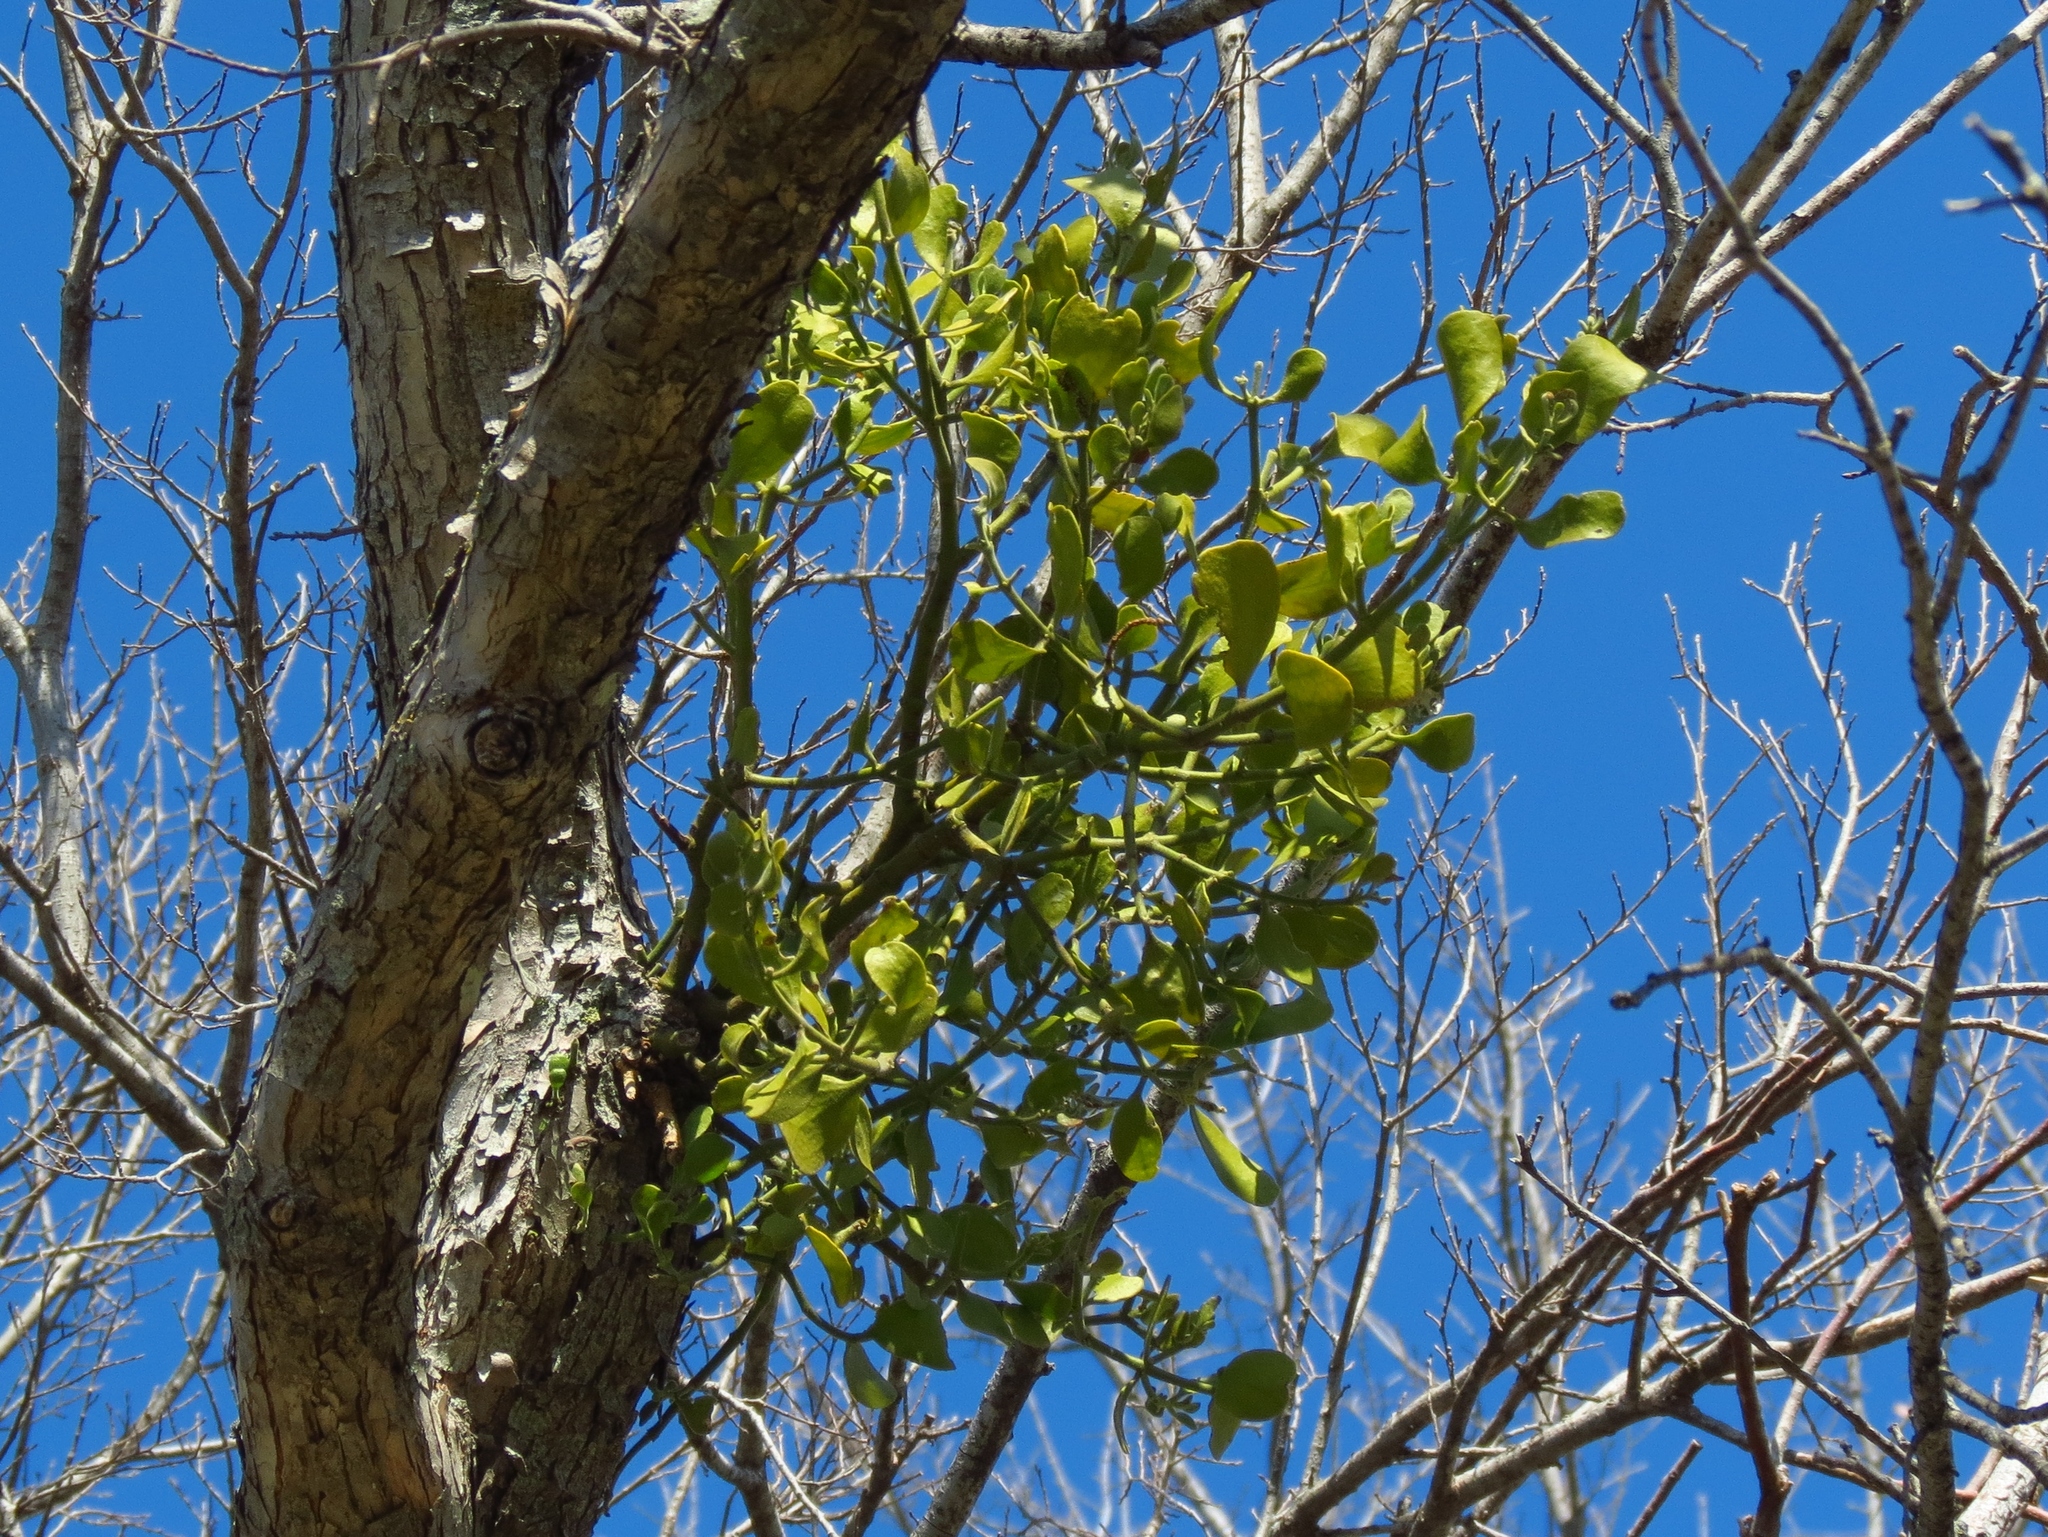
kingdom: Plantae
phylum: Tracheophyta
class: Magnoliopsida
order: Santalales
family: Viscaceae
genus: Phoradendron
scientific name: Phoradendron leucarpum
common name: Pacific mistletoe
